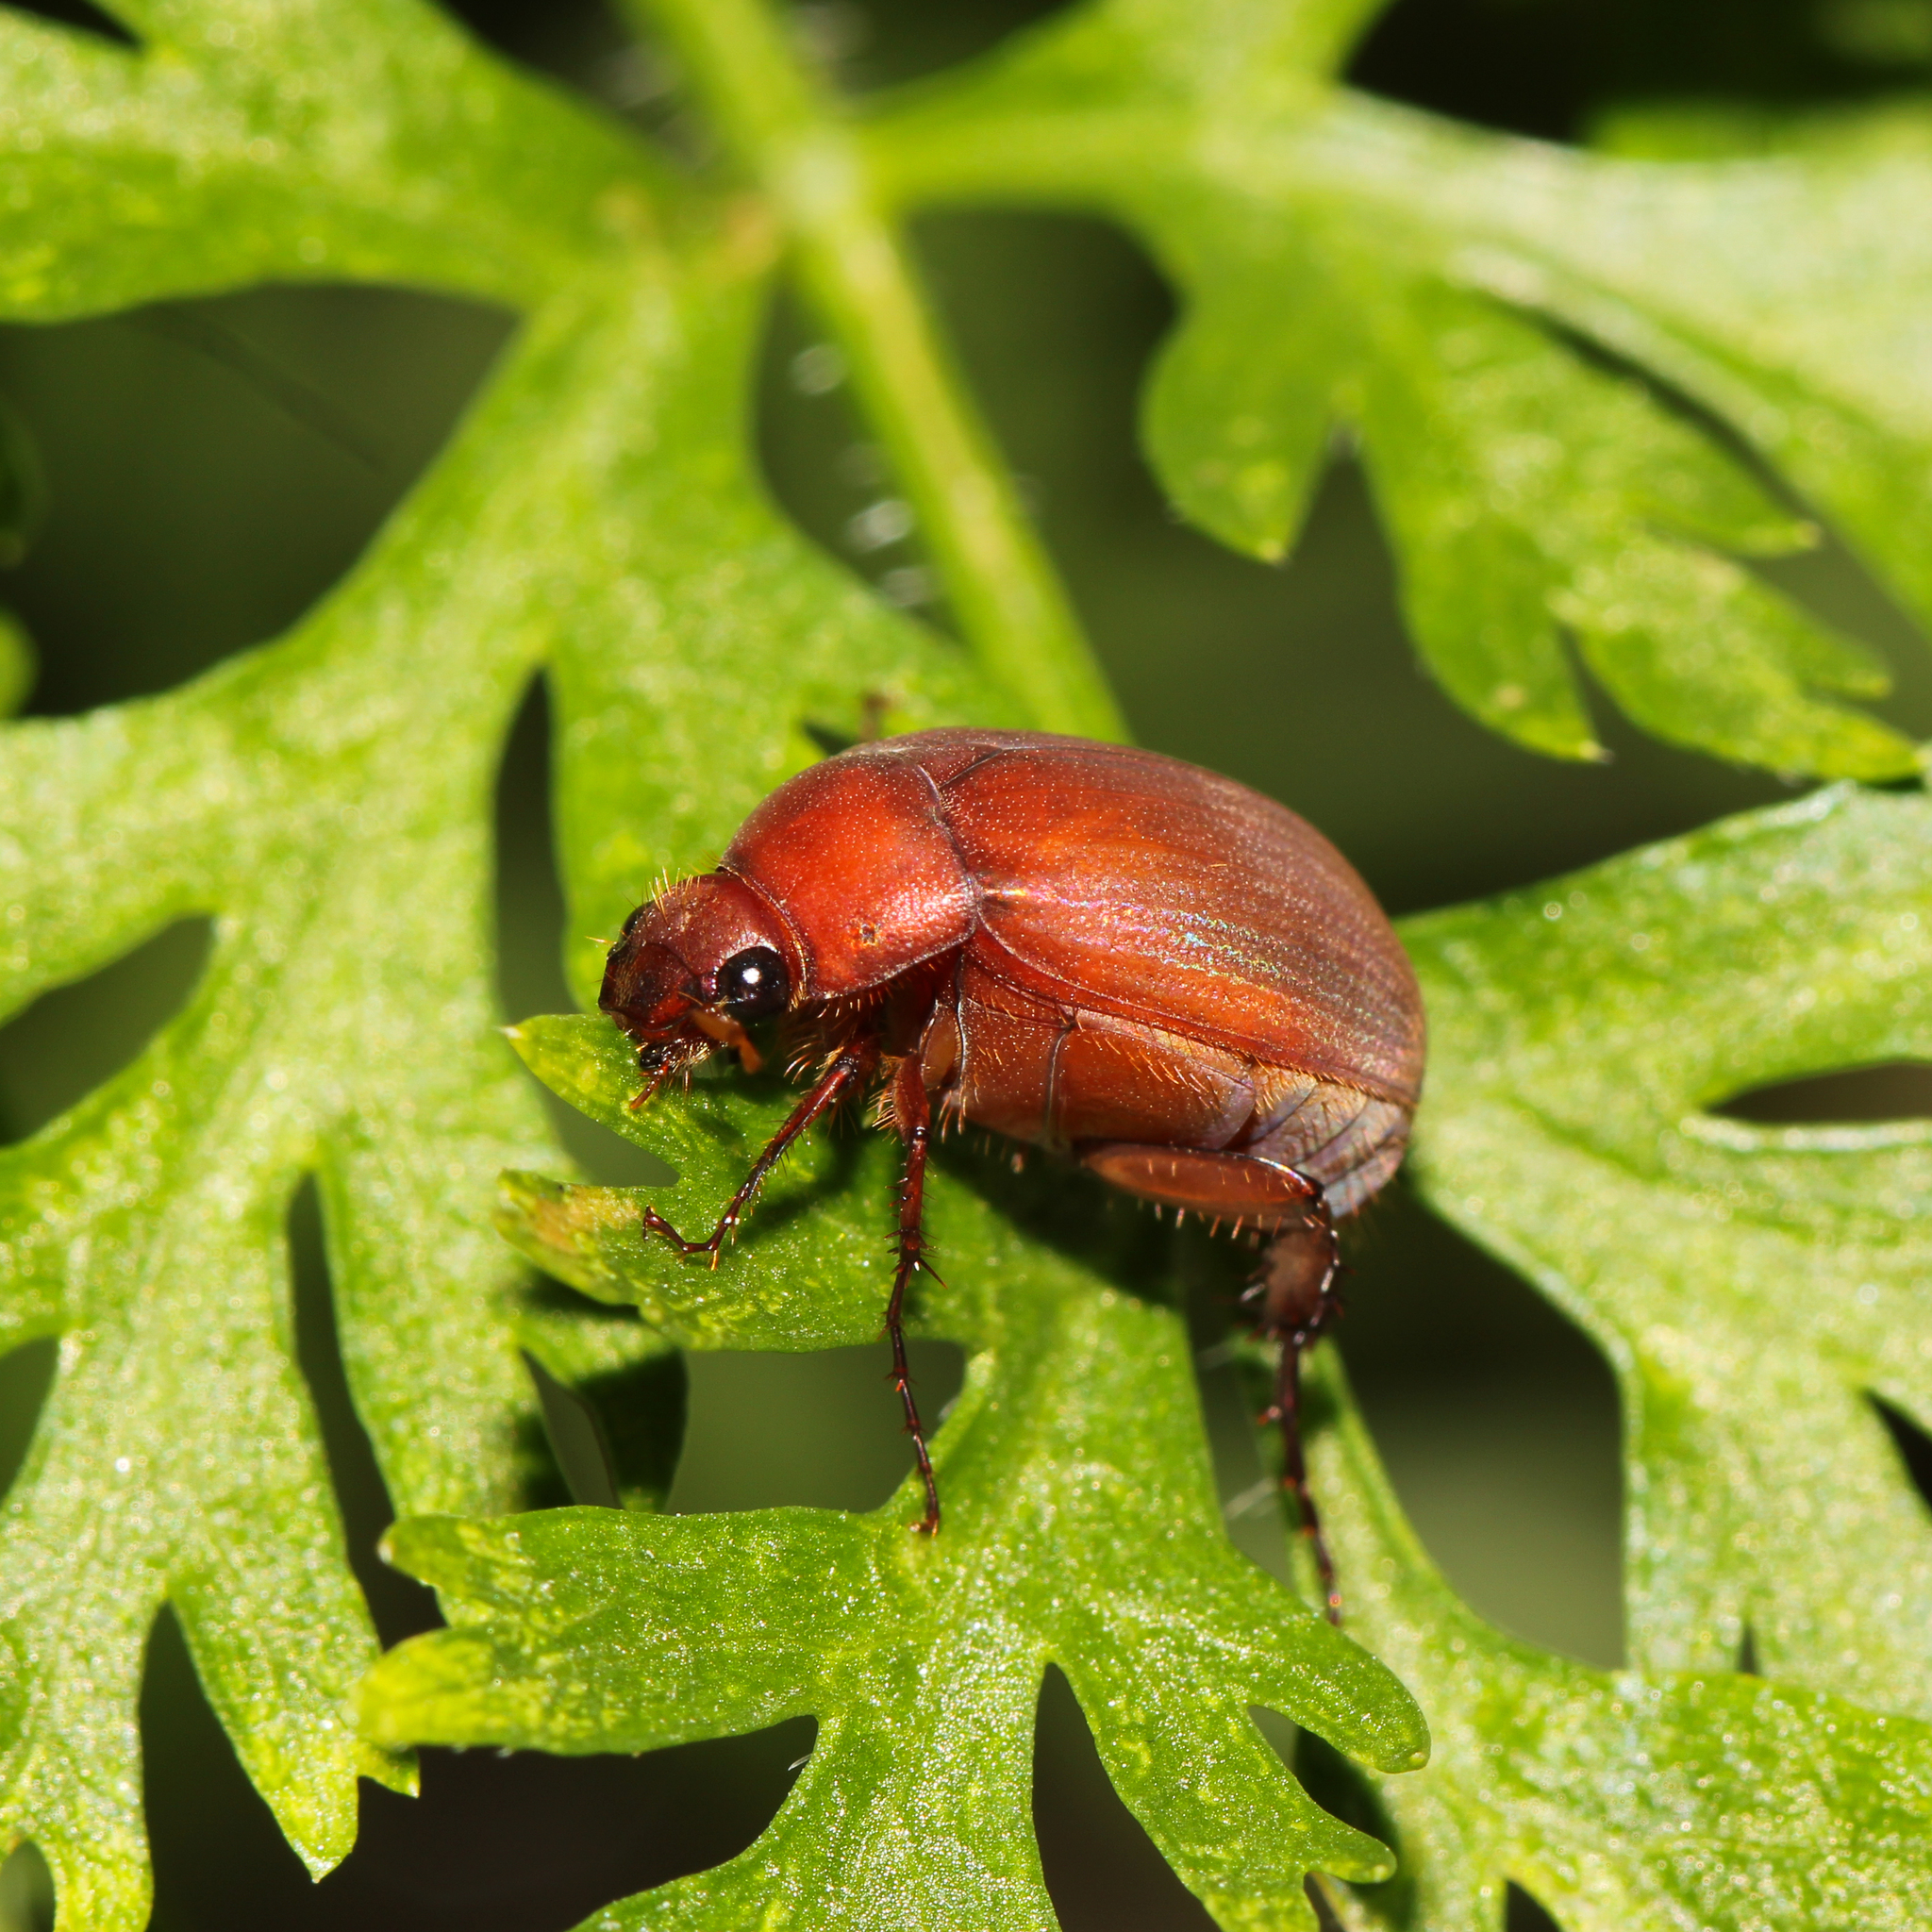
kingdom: Animalia
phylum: Arthropoda
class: Insecta
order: Coleoptera
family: Scarabaeidae
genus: Maladera
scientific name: Maladera formosae
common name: Asiatic garden beetle
